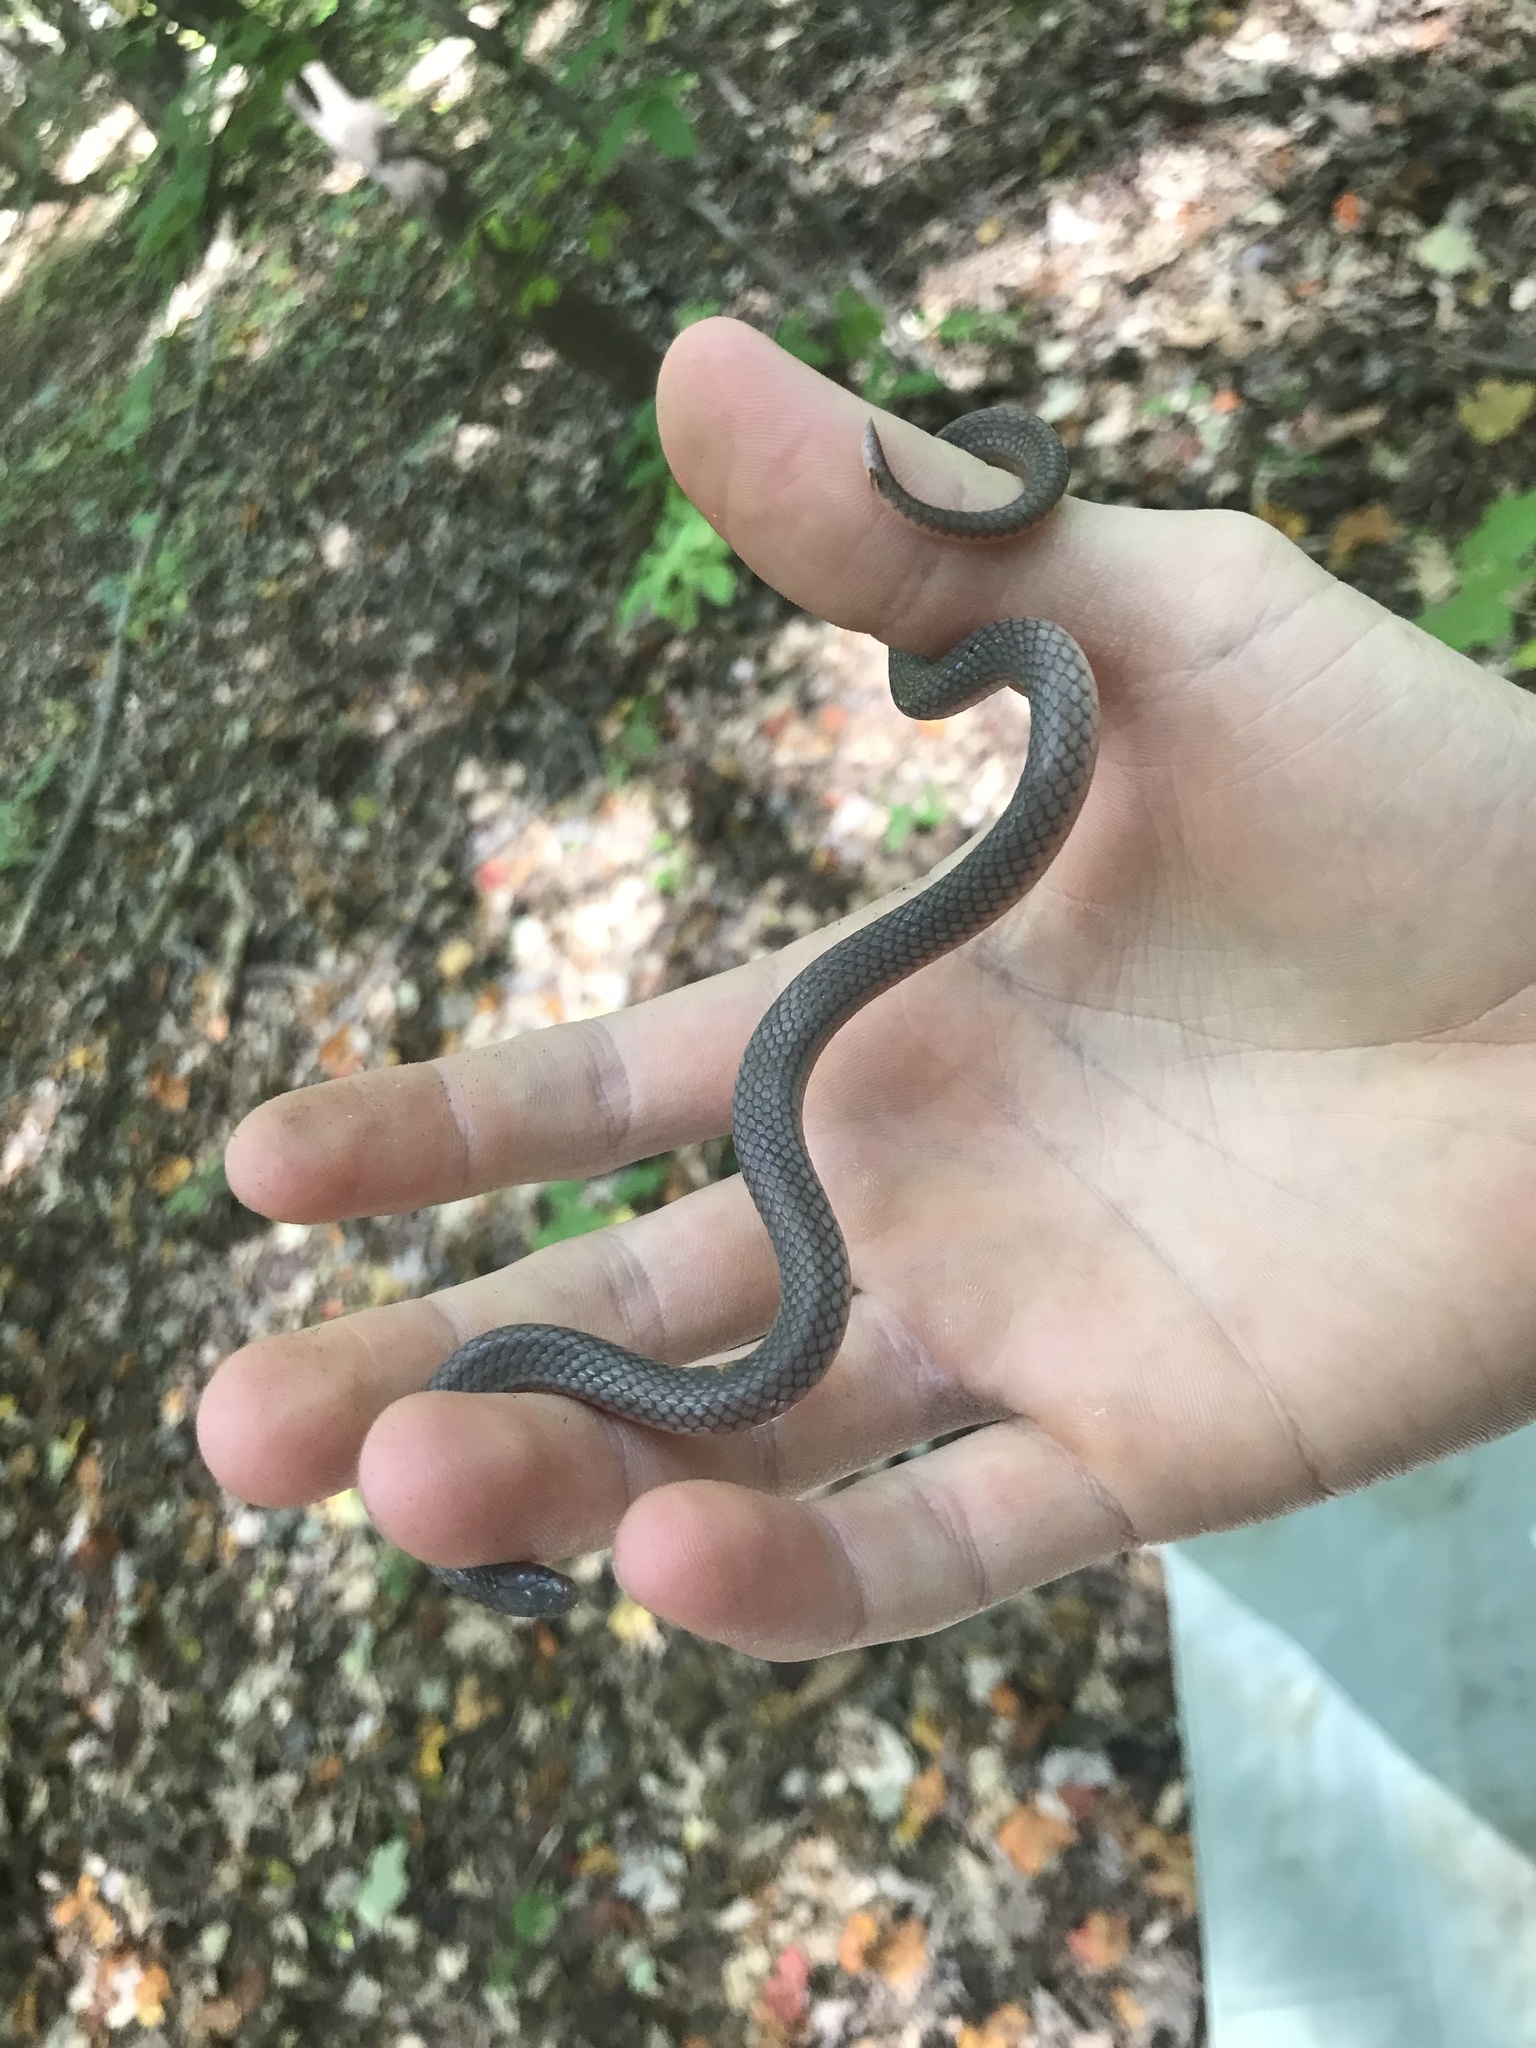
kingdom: Animalia
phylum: Chordata
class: Squamata
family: Colubridae
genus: Carphophis
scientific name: Carphophis amoenus
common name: Eastern worm snake
